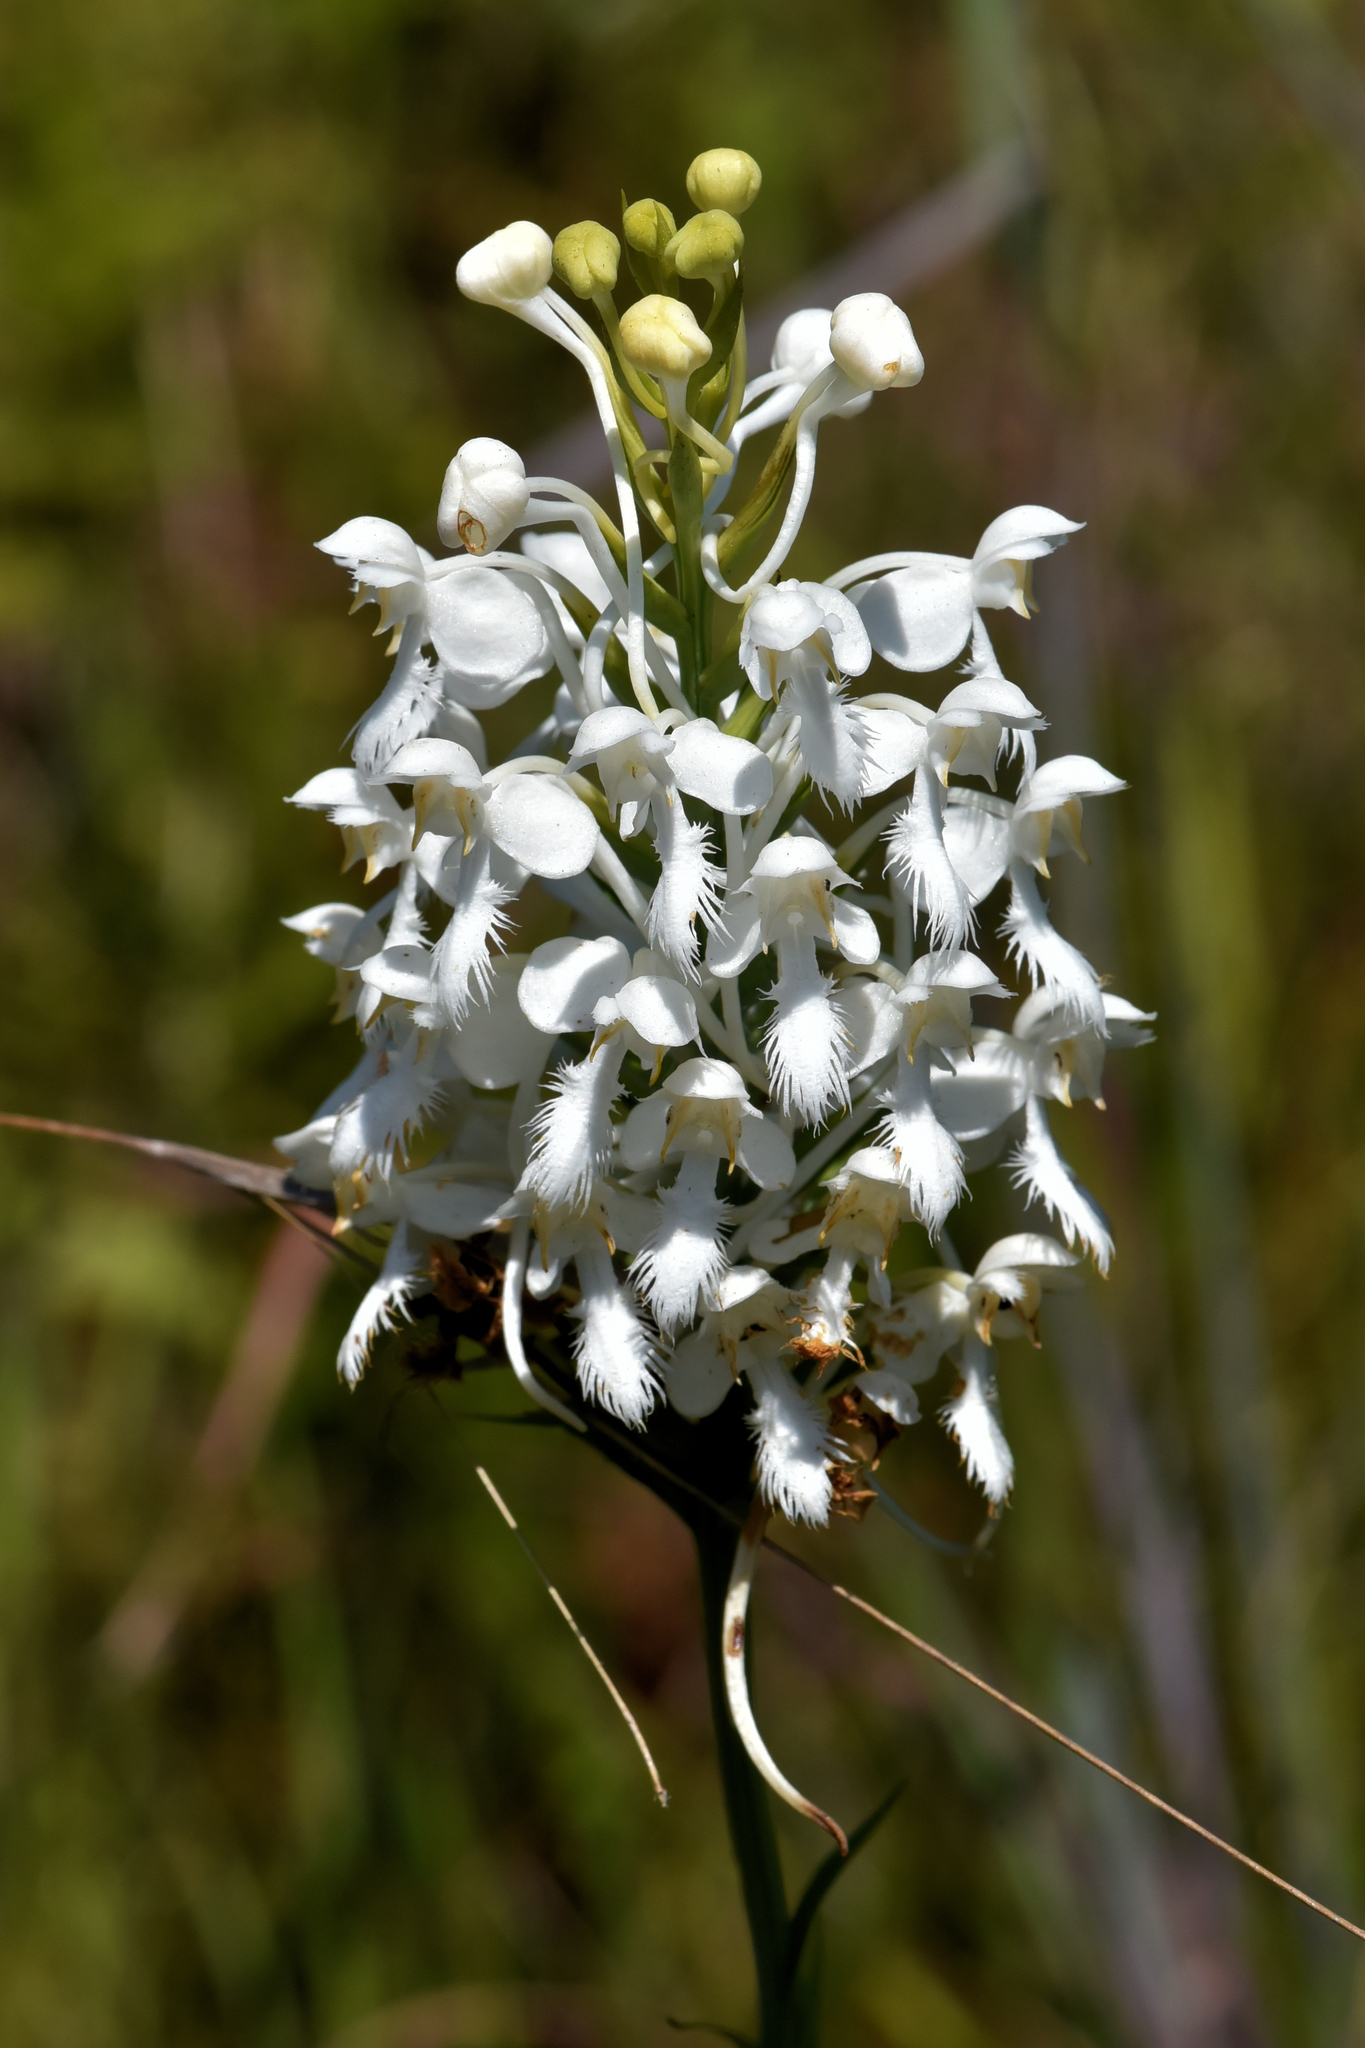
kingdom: Plantae
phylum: Tracheophyta
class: Liliopsida
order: Asparagales
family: Orchidaceae
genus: Platanthera
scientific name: Platanthera blephariglottis
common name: White fringed orchid
